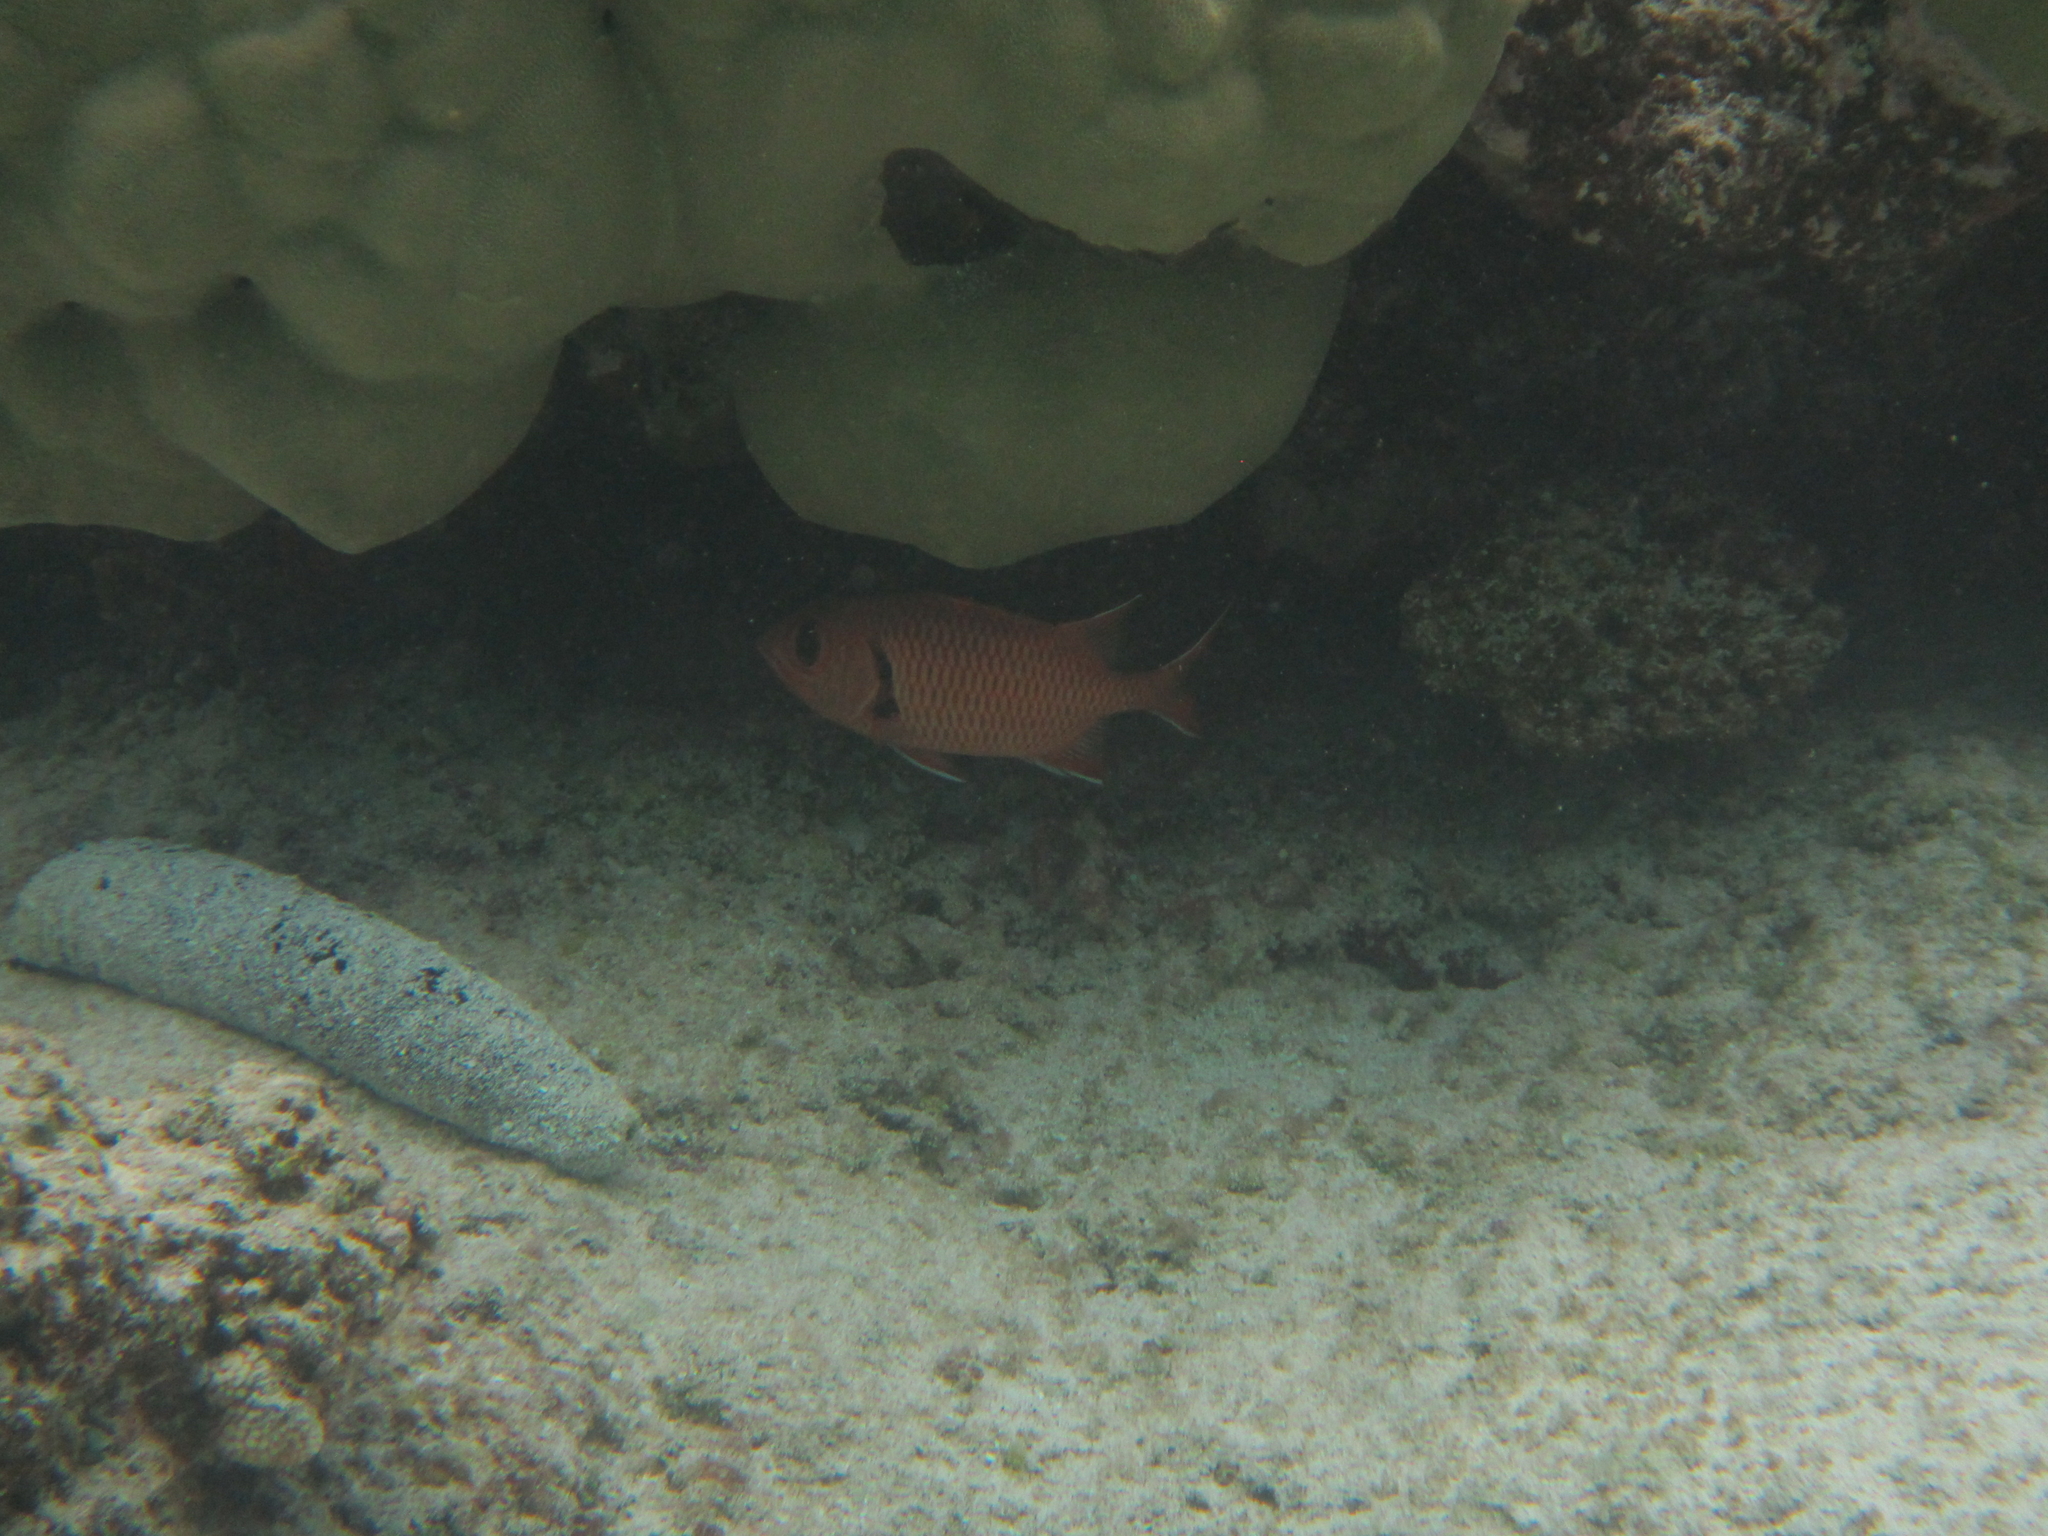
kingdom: Animalia
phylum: Chordata
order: Beryciformes
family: Holocentridae
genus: Myripristis
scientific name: Myripristis berndti
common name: Bigscale soldierfish
